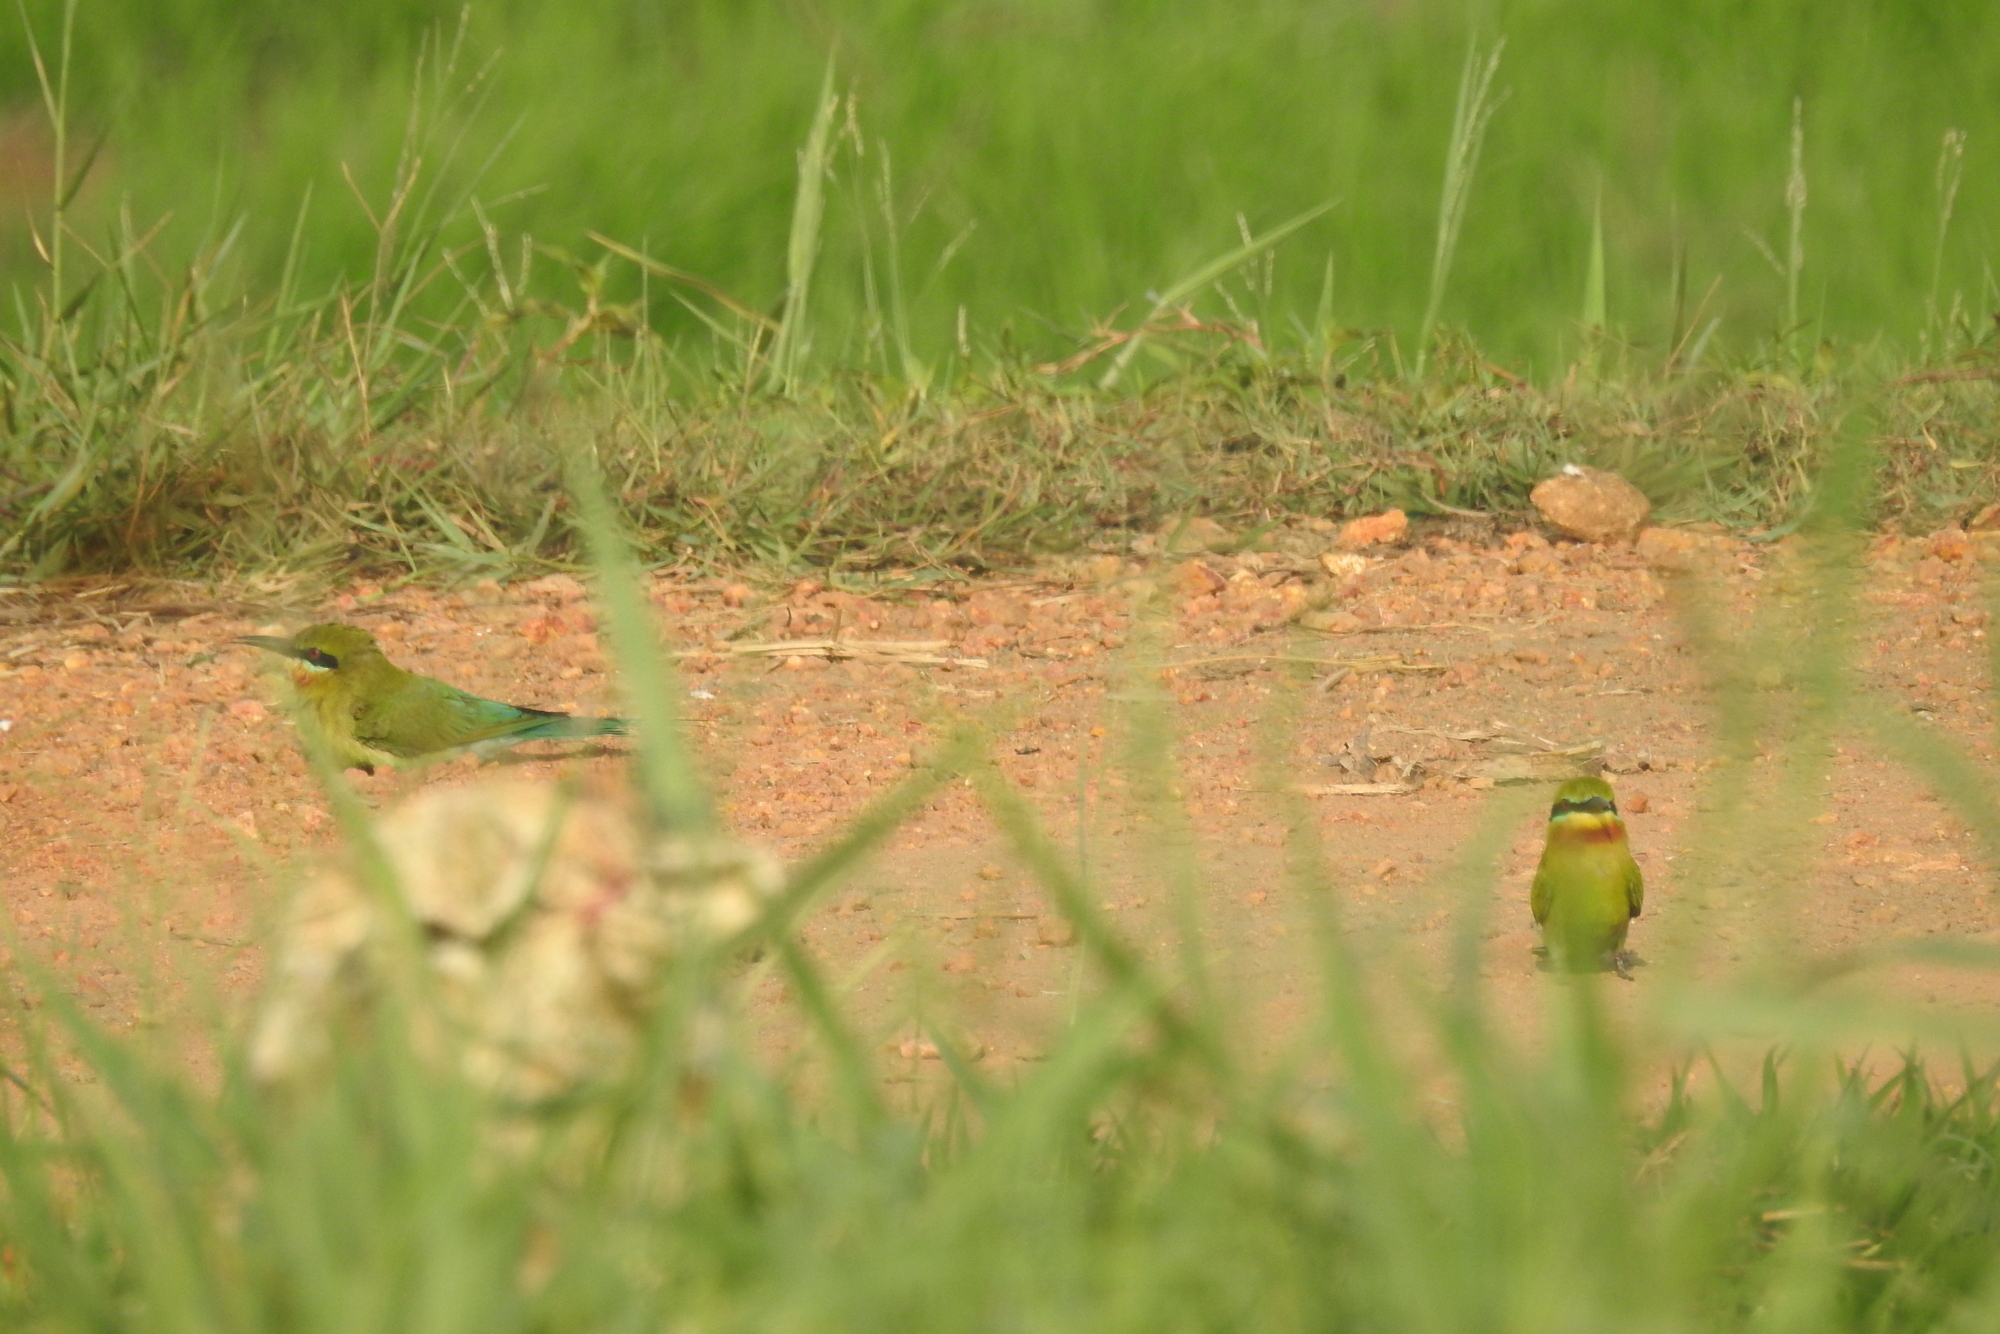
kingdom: Animalia
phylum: Chordata
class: Aves
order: Coraciiformes
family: Meropidae
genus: Merops
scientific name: Merops philippinus
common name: Blue-tailed bee-eater
